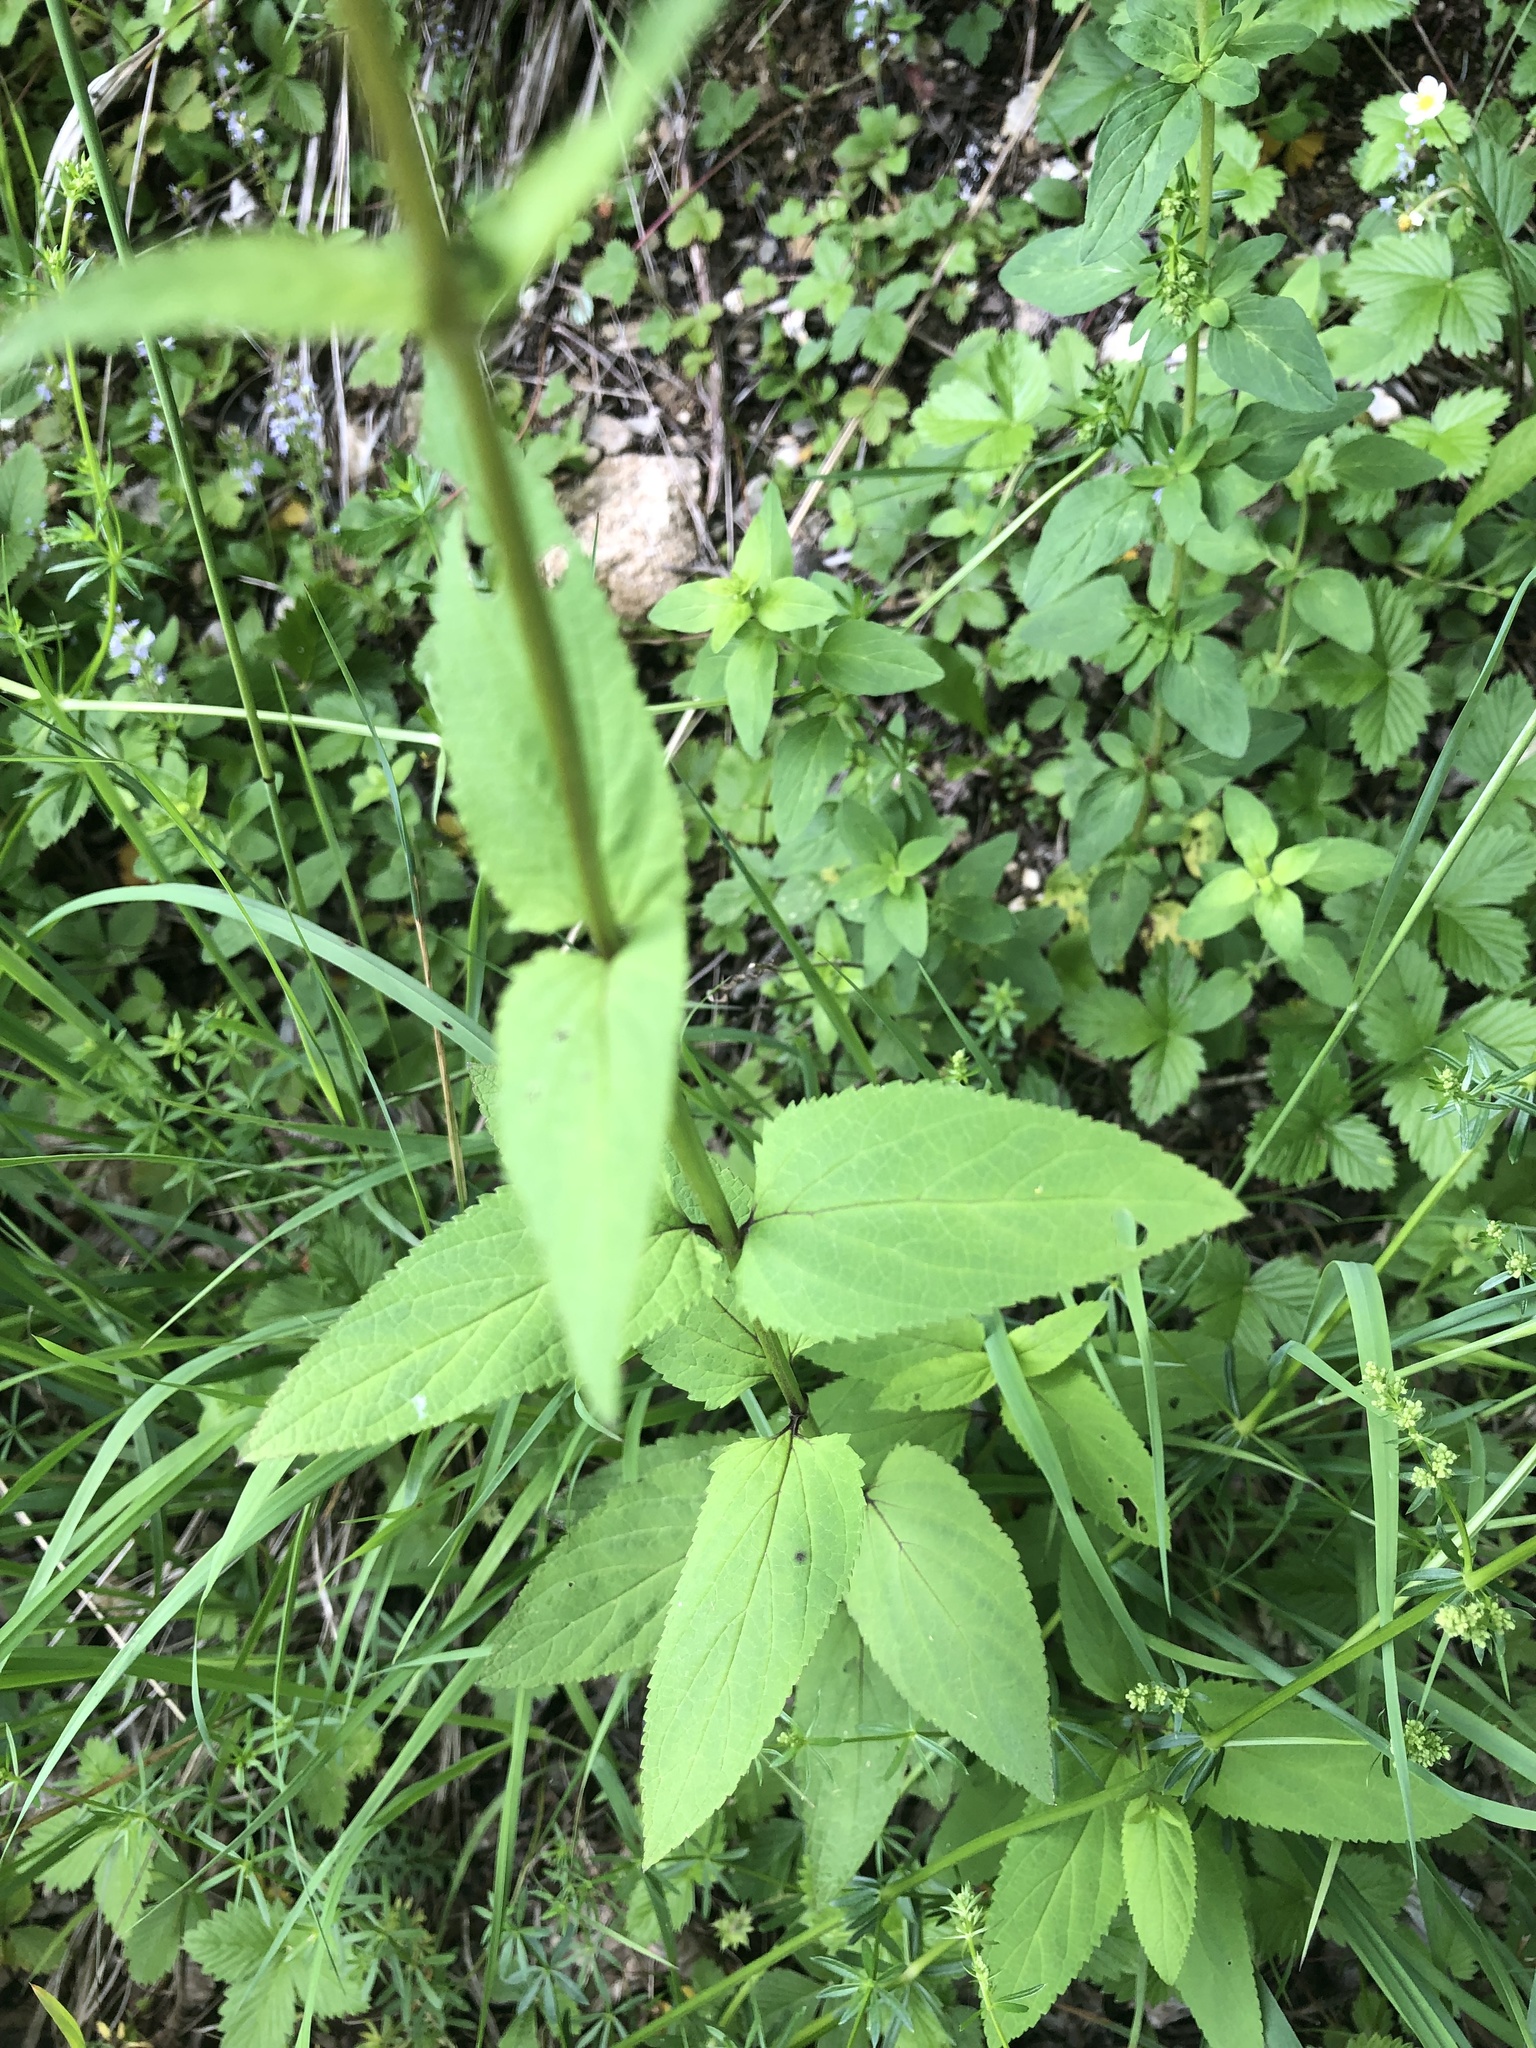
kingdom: Plantae
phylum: Tracheophyta
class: Magnoliopsida
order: Lamiales
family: Scrophulariaceae
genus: Scrophularia
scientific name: Scrophularia nodosa
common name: Common figwort
